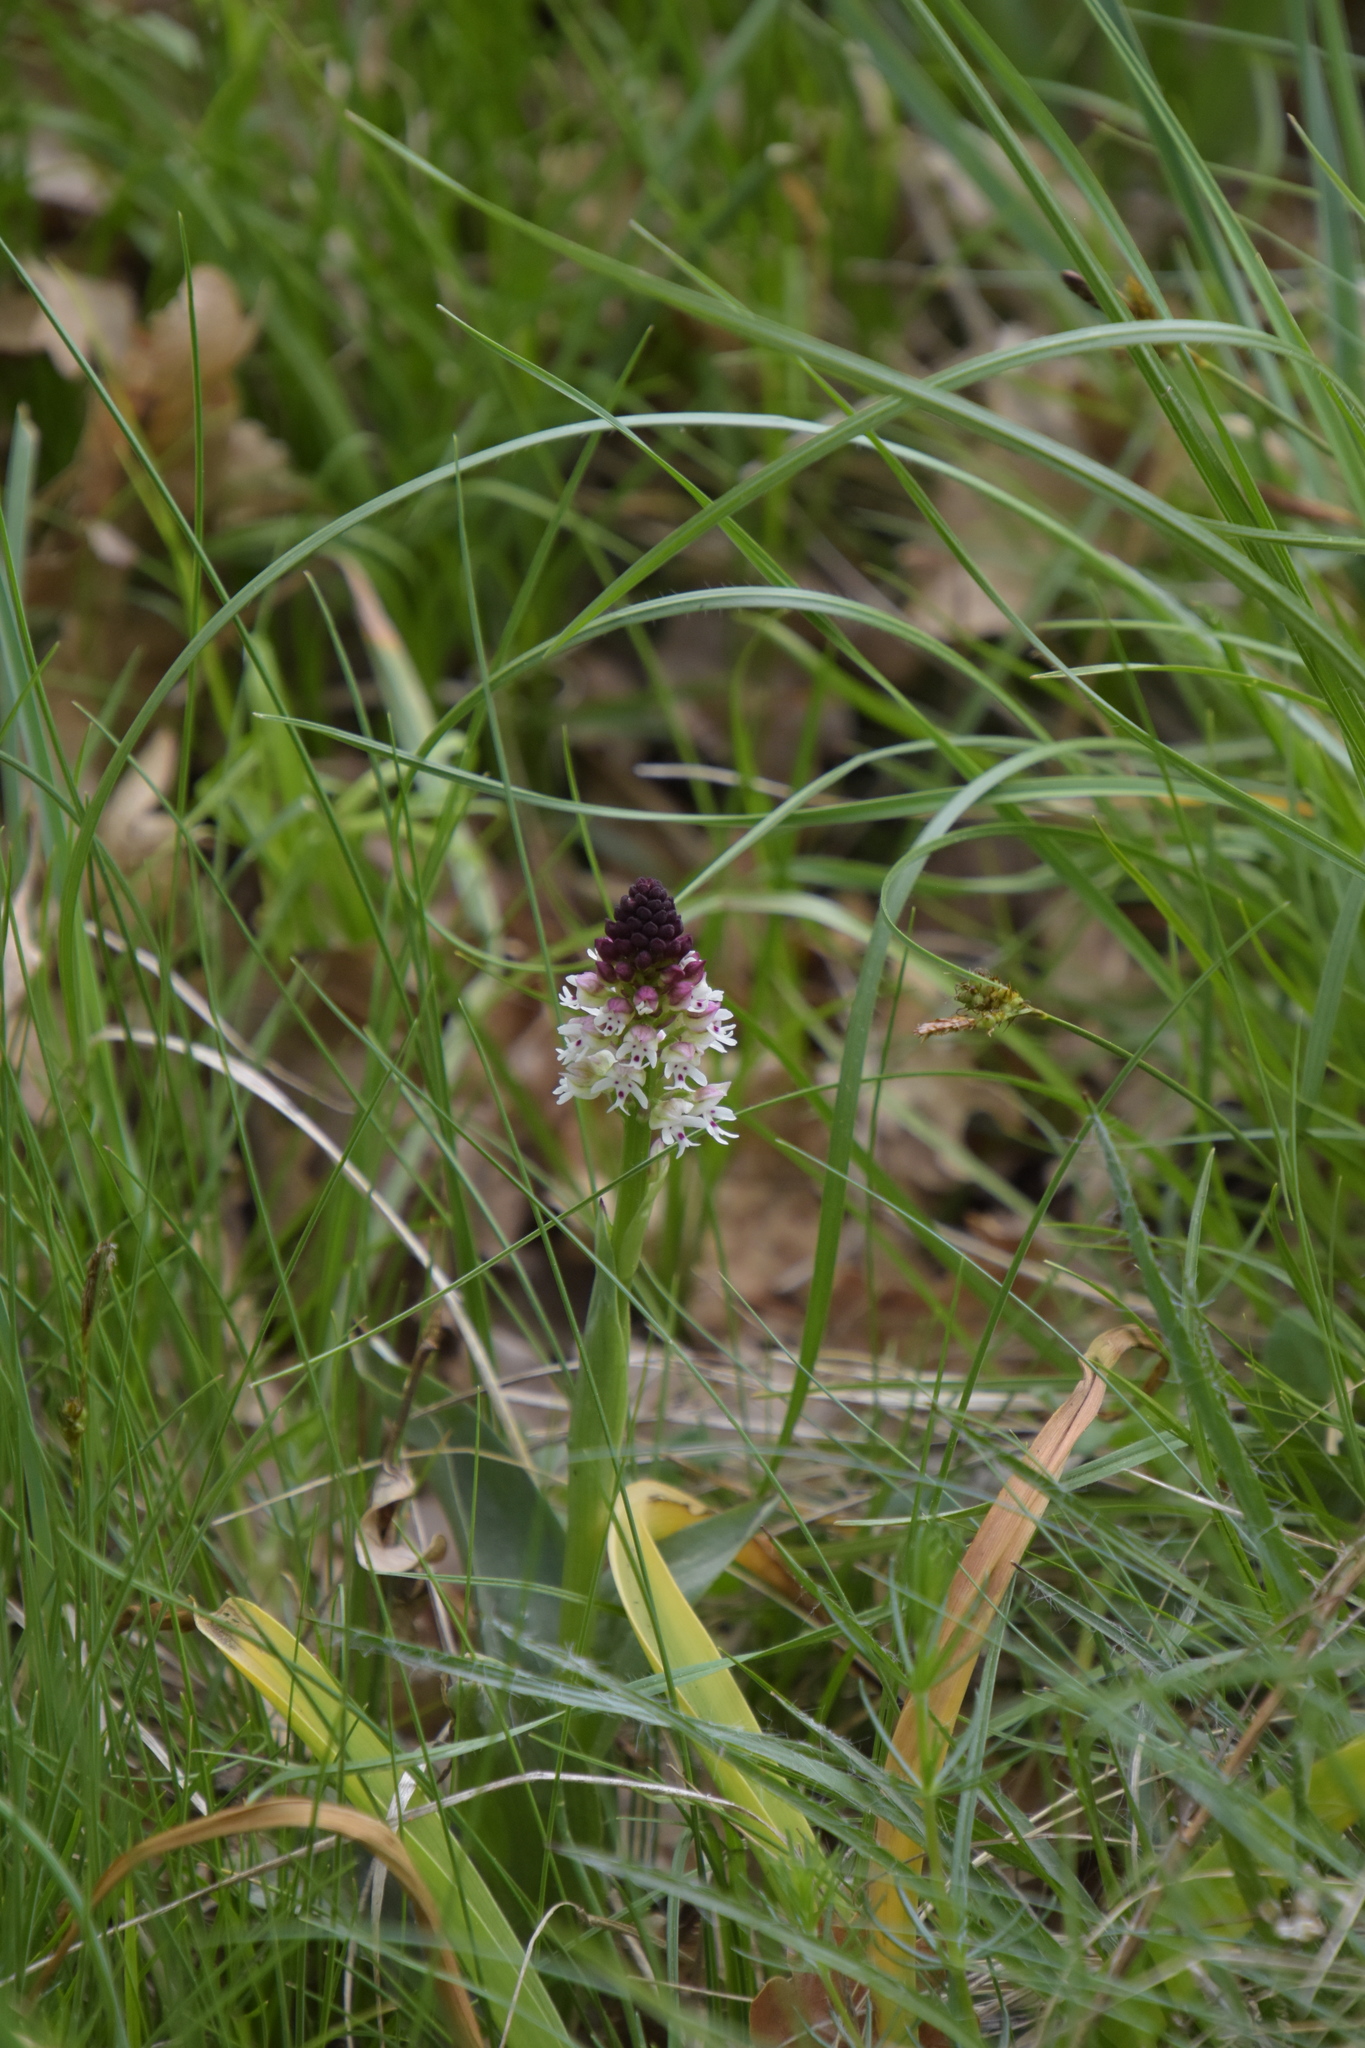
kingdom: Plantae
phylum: Tracheophyta
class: Liliopsida
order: Asparagales
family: Orchidaceae
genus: Neotinea
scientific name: Neotinea ustulata
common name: Burnt orchid
